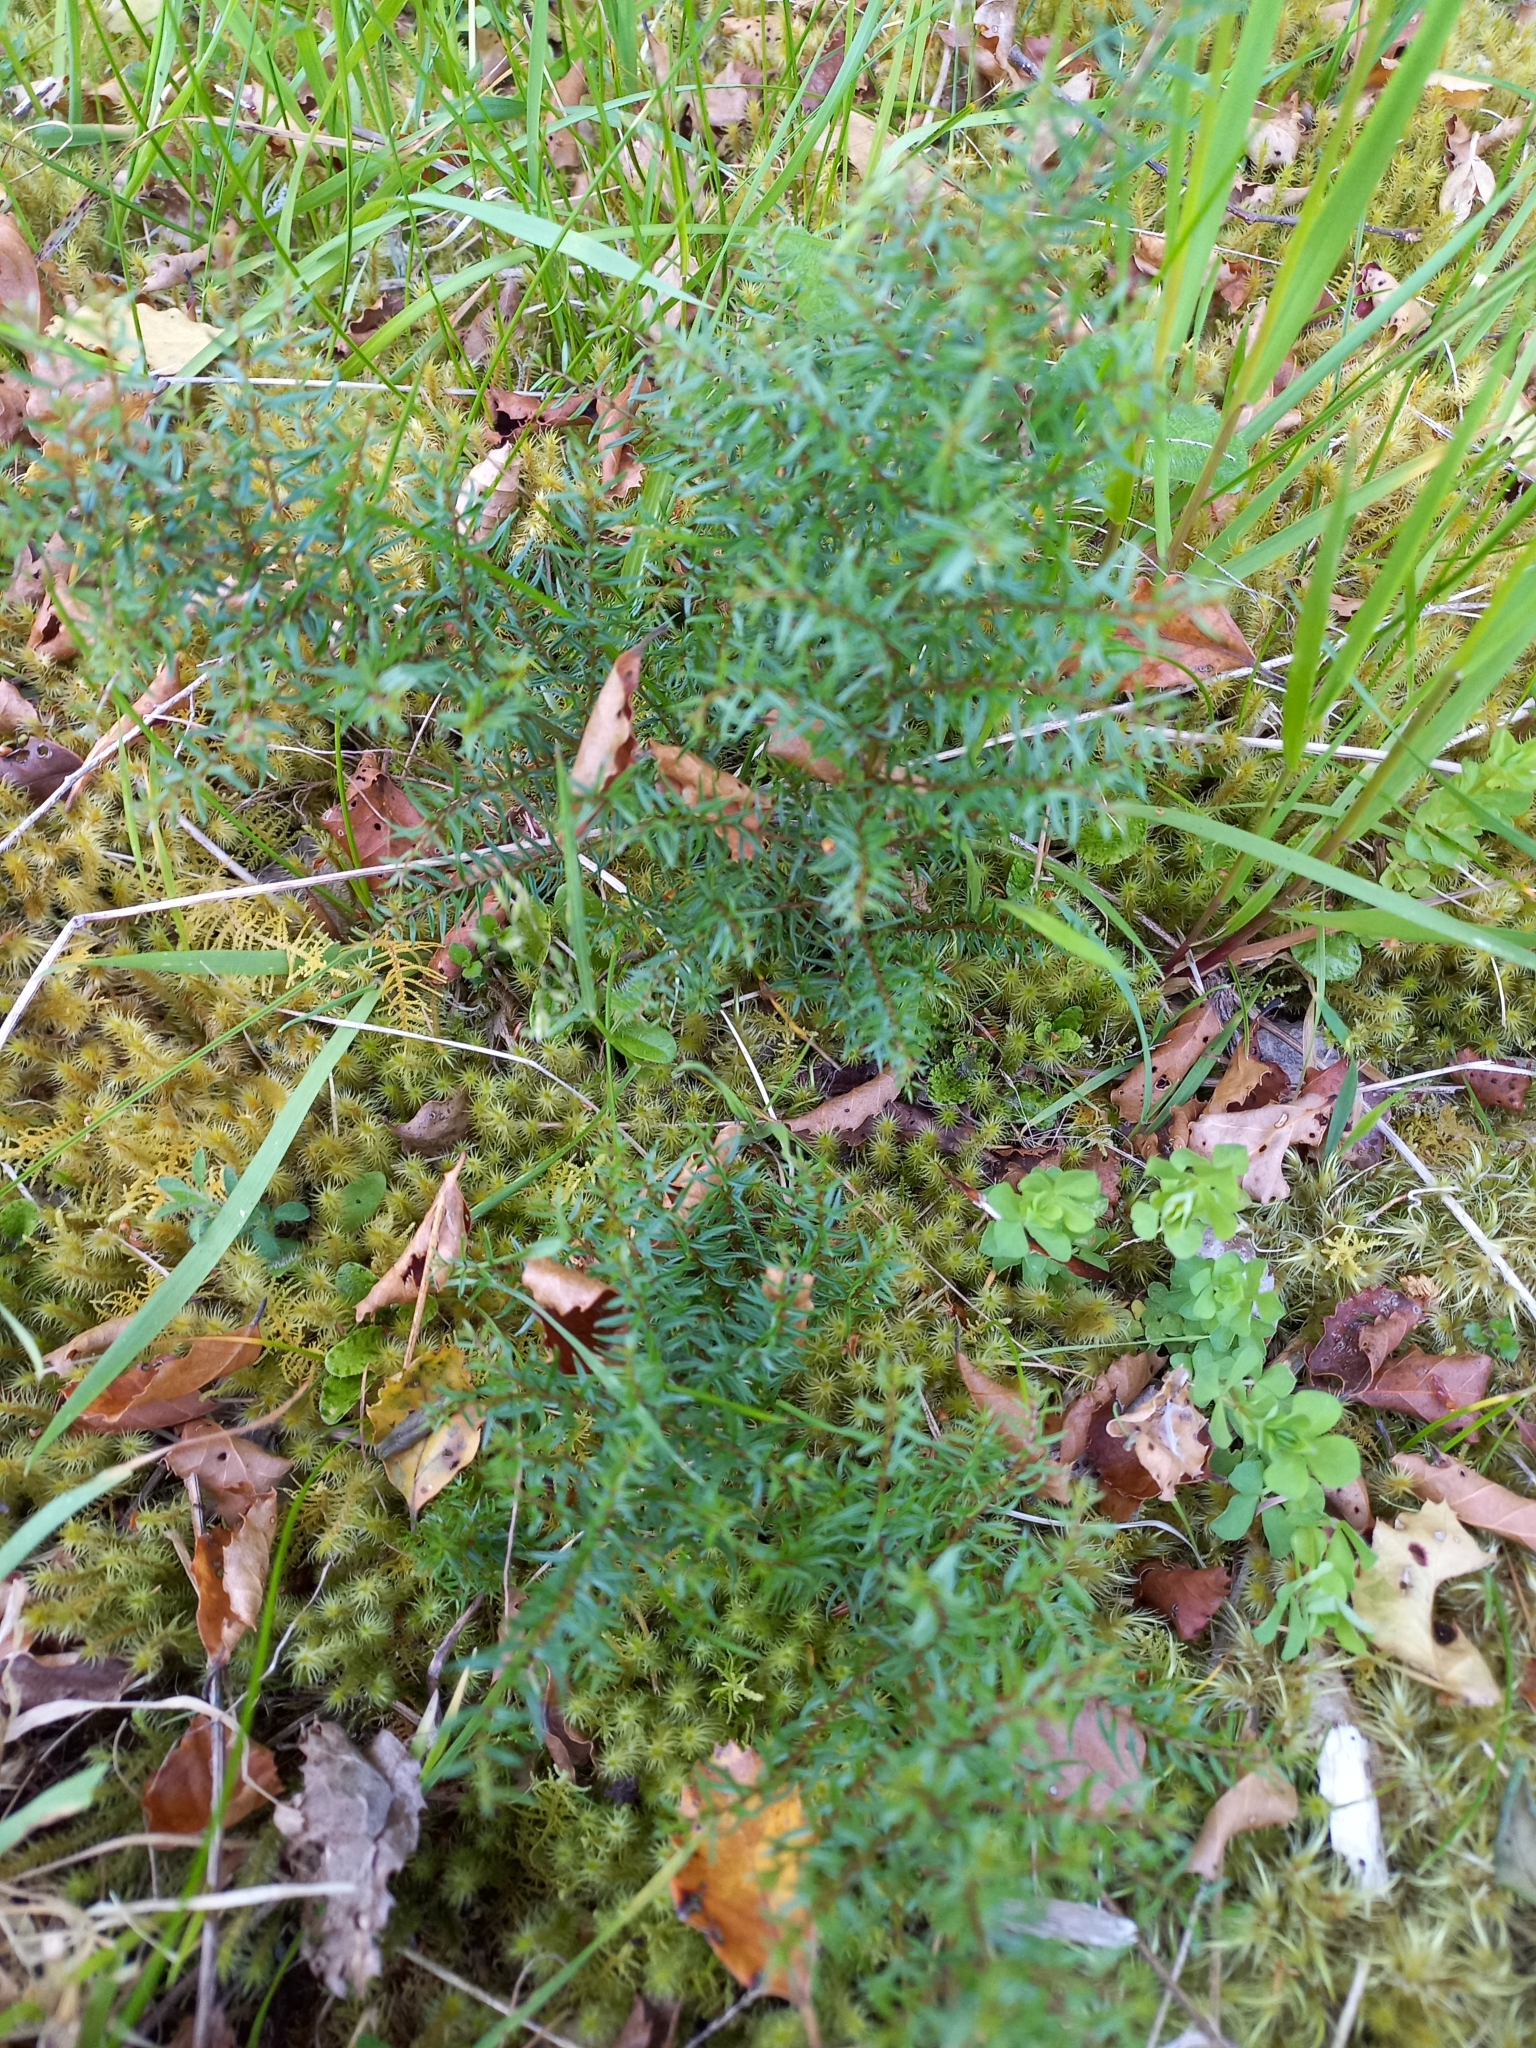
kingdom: Plantae
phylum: Tracheophyta
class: Magnoliopsida
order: Cucurbitales
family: Coriariaceae
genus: Coriaria
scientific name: Coriaria angustissima
